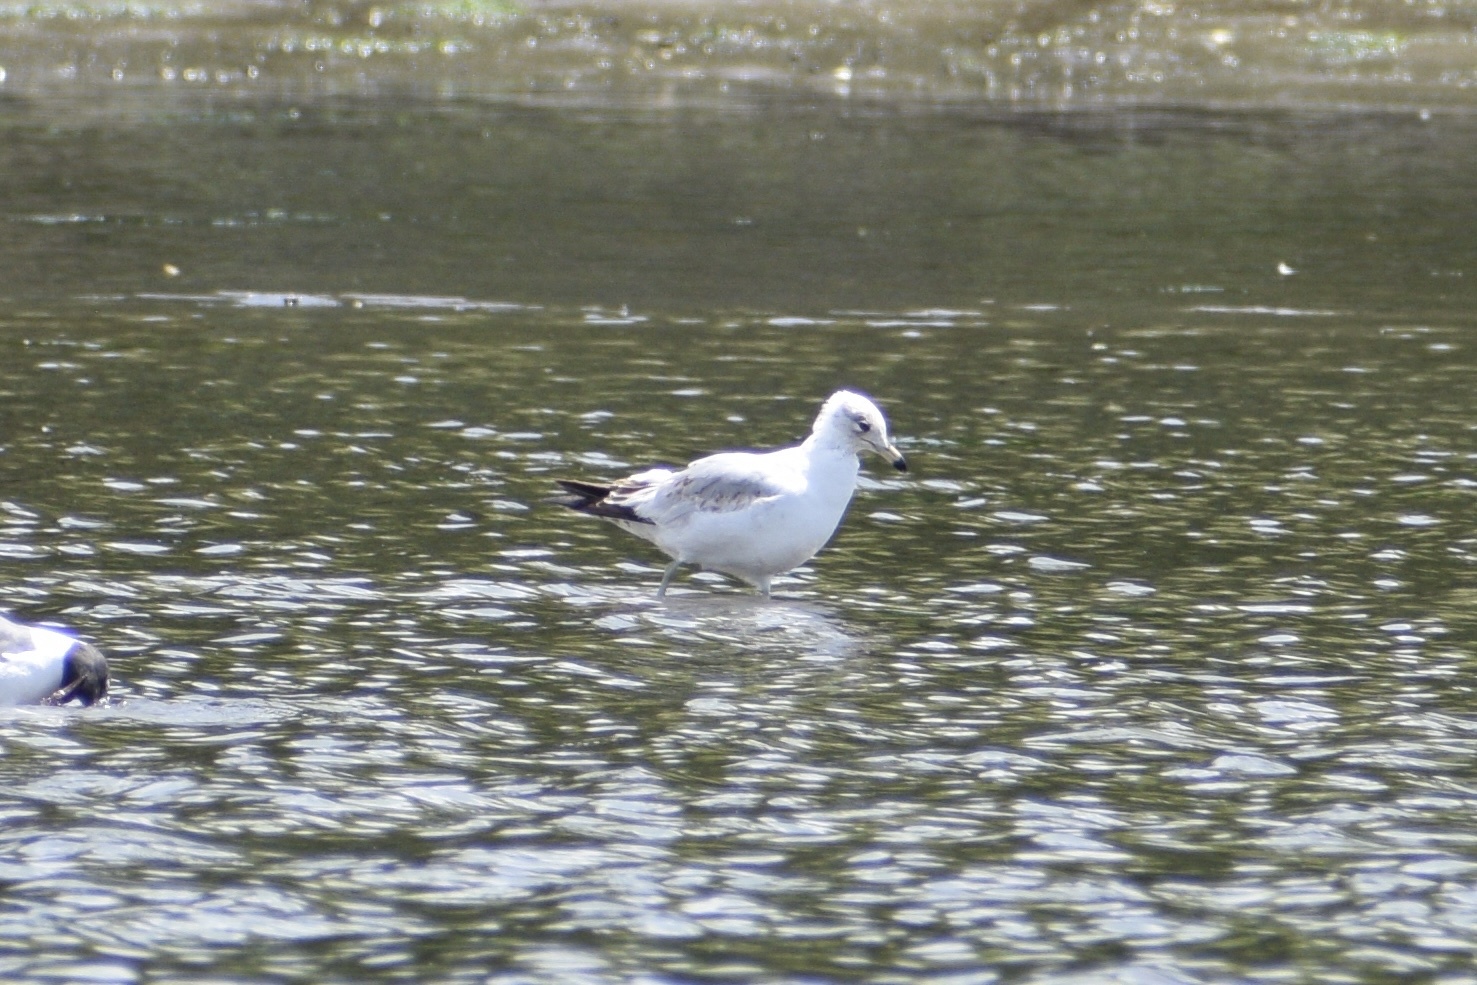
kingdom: Animalia
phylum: Chordata
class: Aves
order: Charadriiformes
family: Laridae
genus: Larus
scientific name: Larus delawarensis
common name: Ring-billed gull
